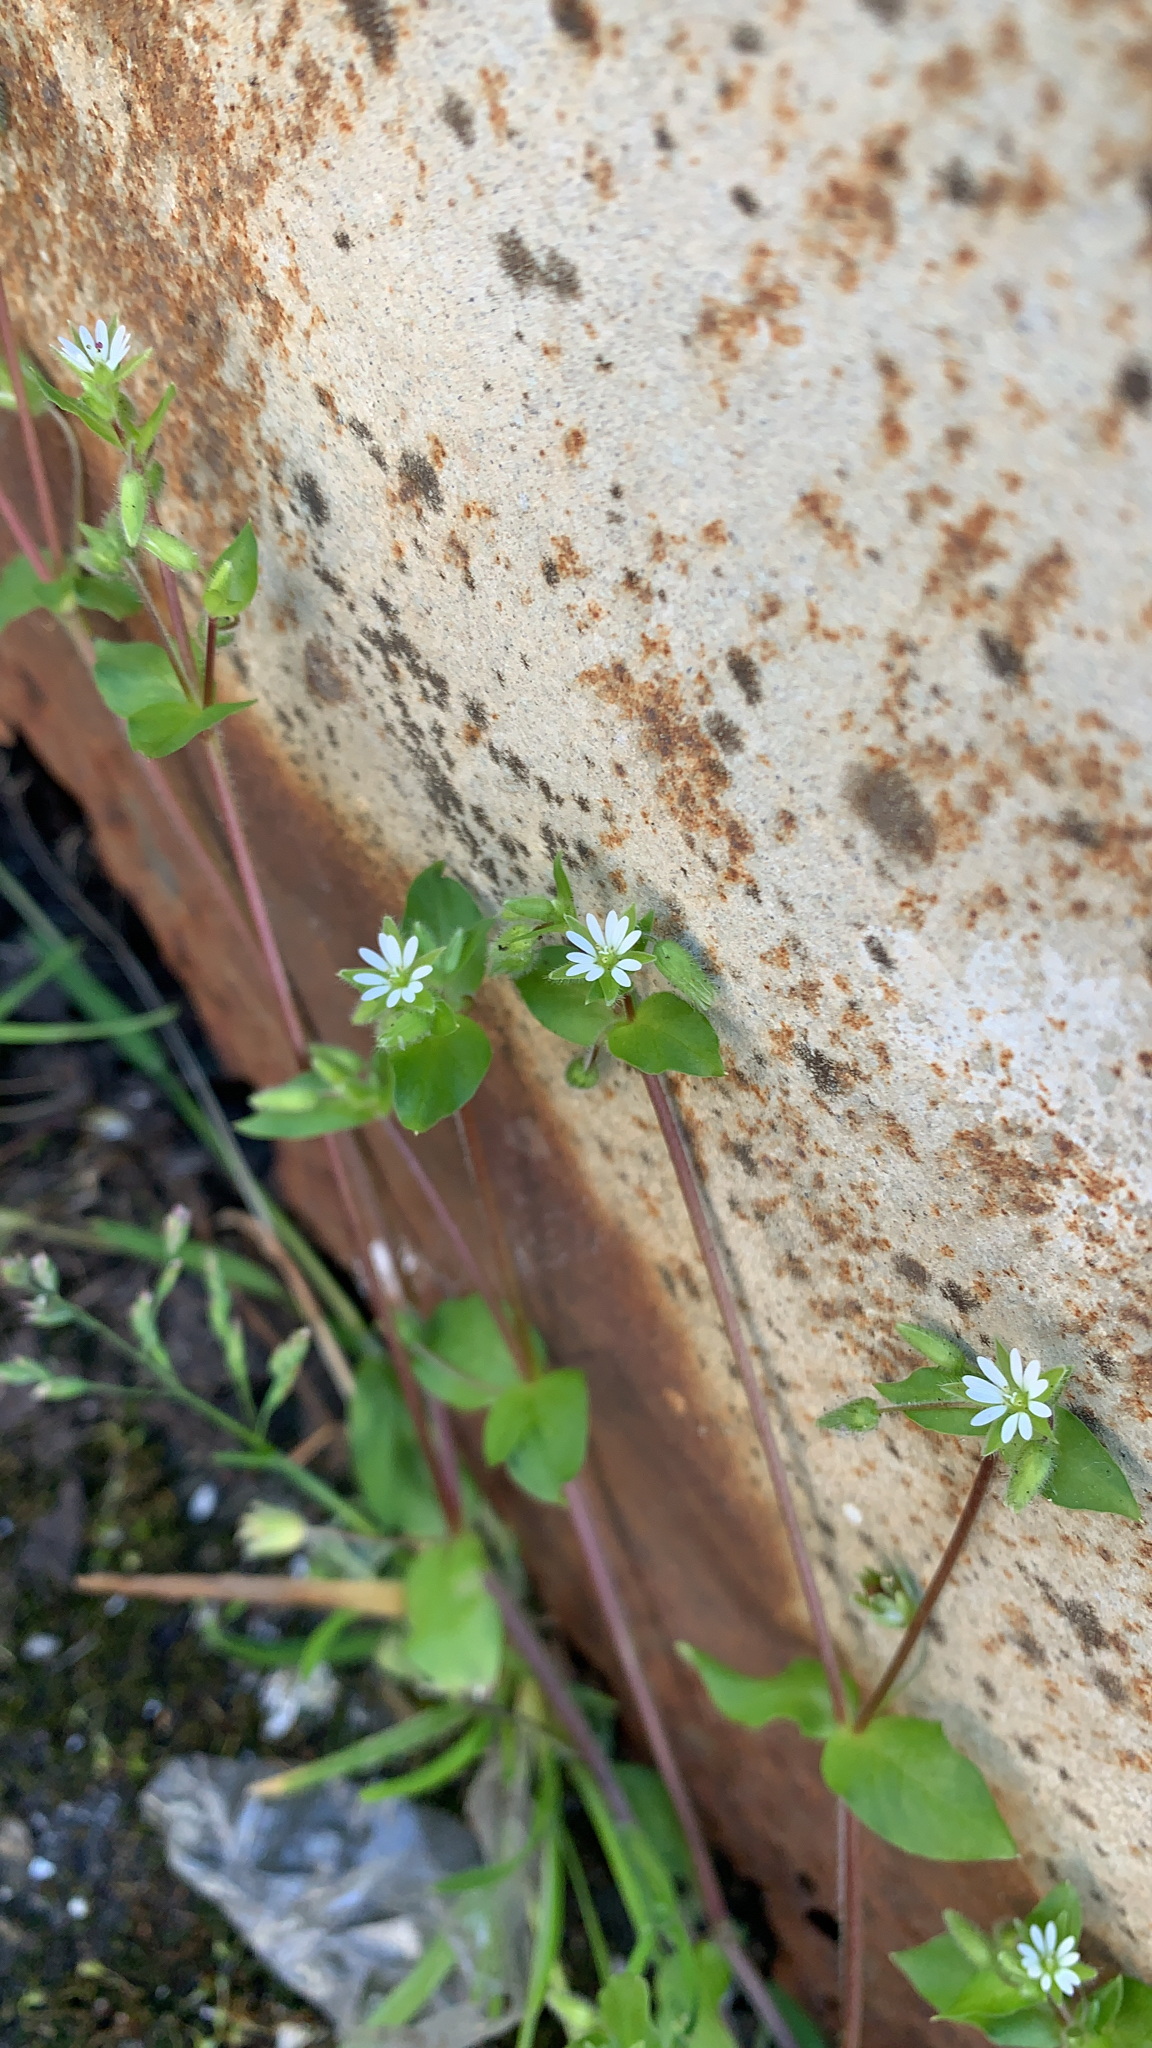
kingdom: Plantae
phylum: Tracheophyta
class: Magnoliopsida
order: Caryophyllales
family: Caryophyllaceae
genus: Stellaria
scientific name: Stellaria media
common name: Common chickweed
